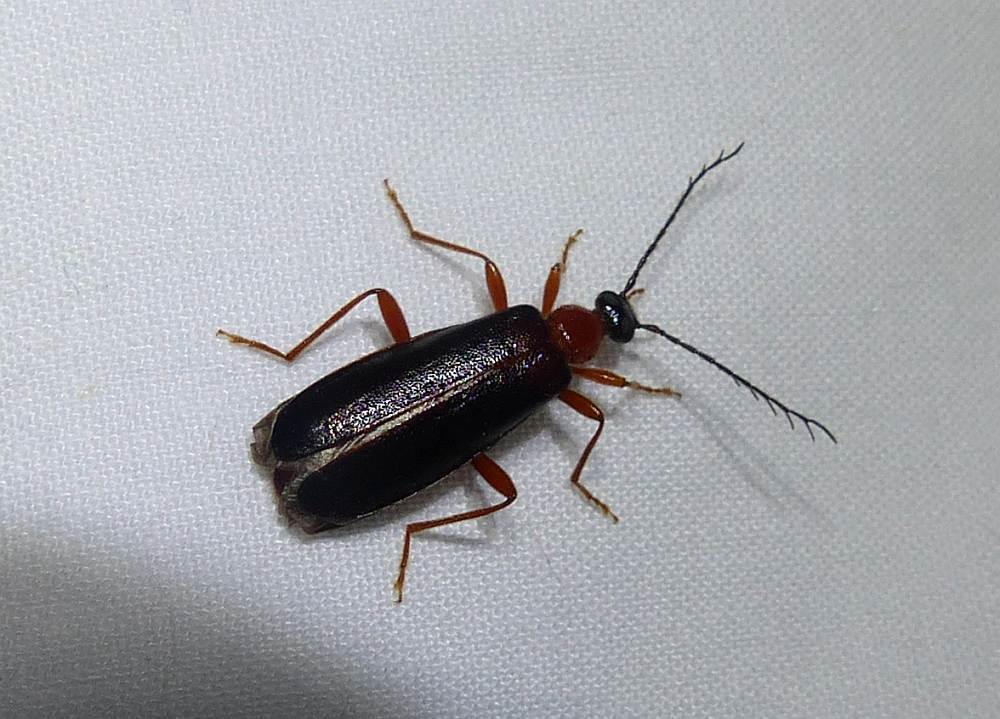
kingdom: Animalia
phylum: Arthropoda
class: Insecta
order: Coleoptera
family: Pyrochroidae
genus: Dendroides
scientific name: Dendroides canadensis
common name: Canada fire-colored beetle
